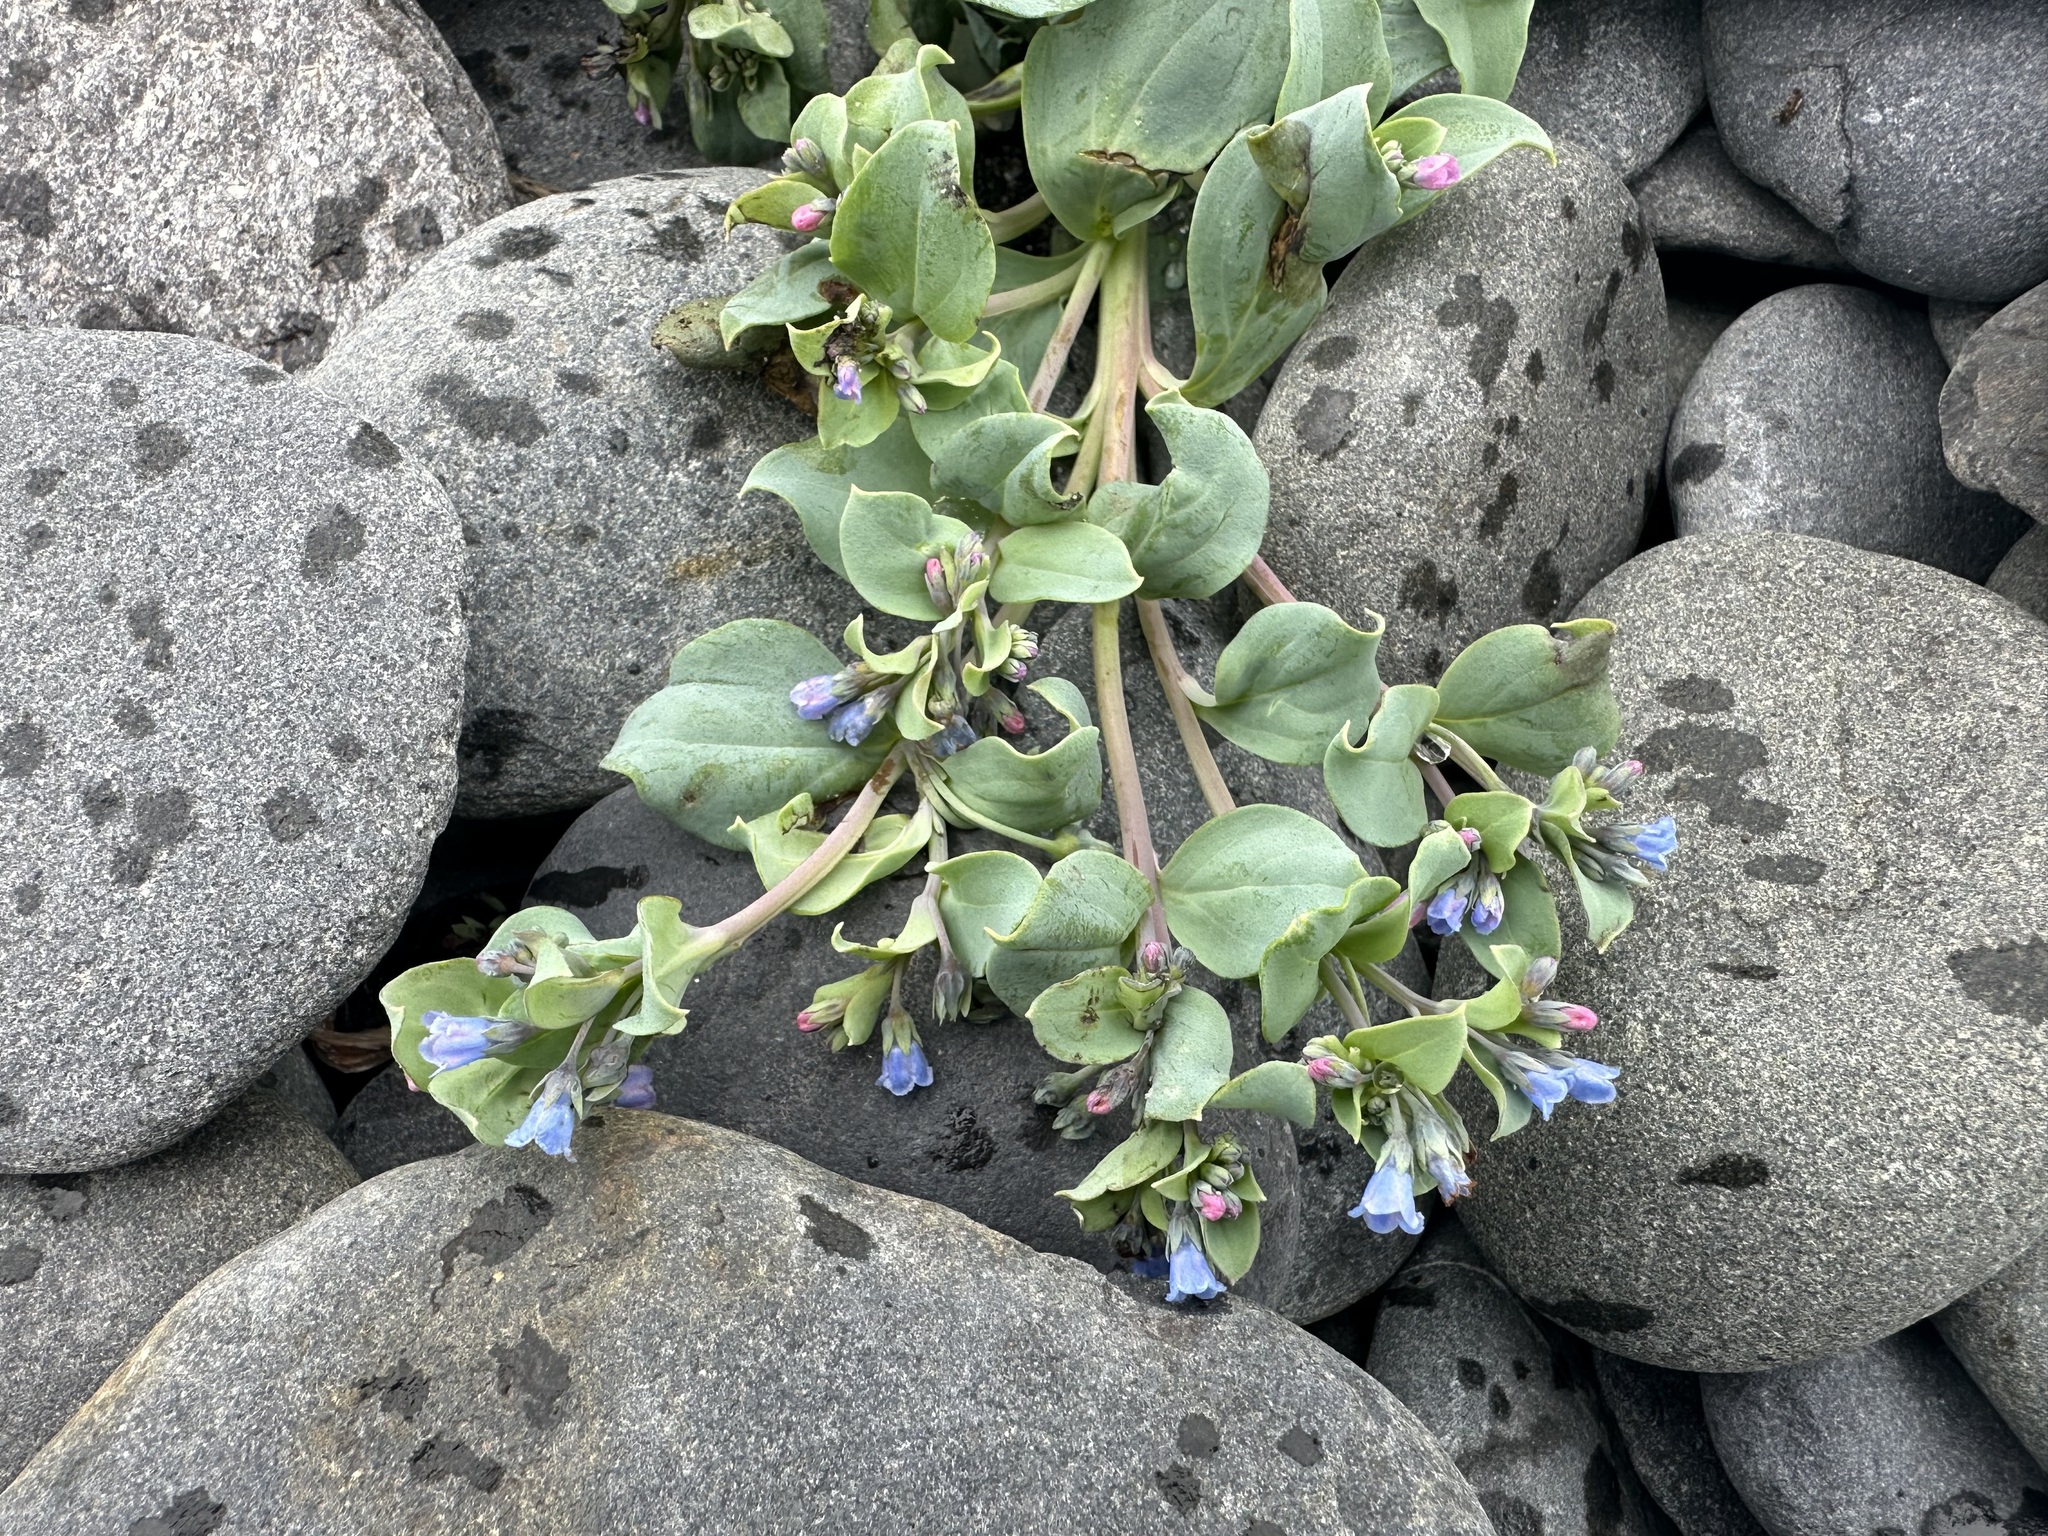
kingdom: Plantae
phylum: Tracheophyta
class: Magnoliopsida
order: Boraginales
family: Boraginaceae
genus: Mertensia
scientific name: Mertensia maritima
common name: Oysterplant
